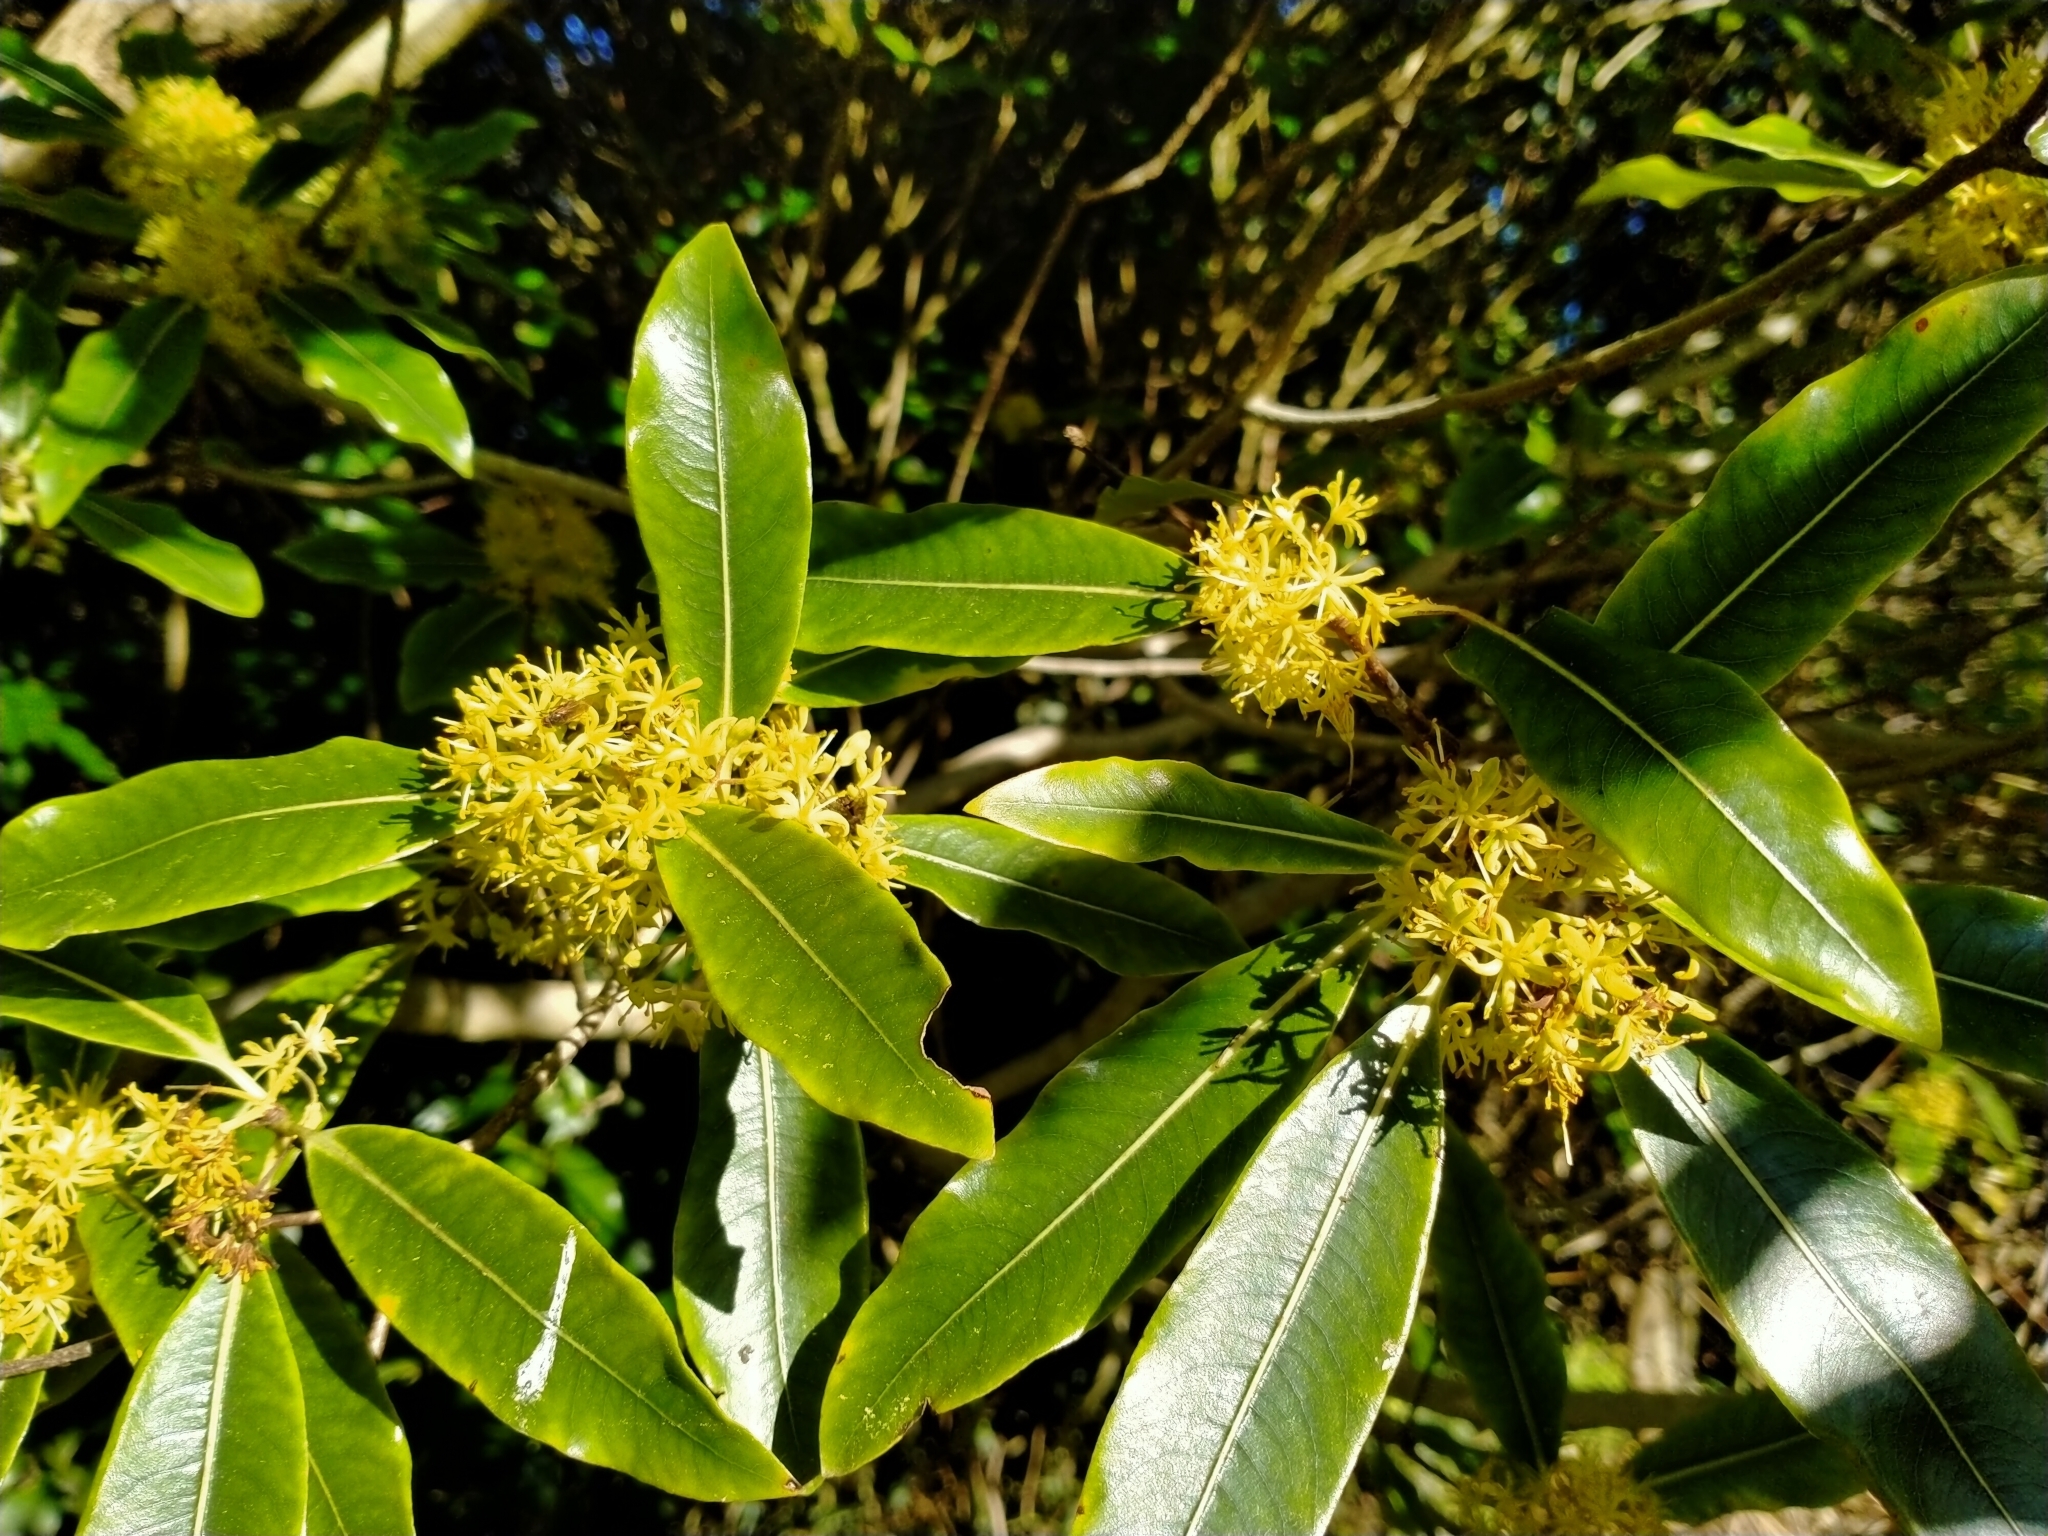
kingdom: Plantae
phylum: Tracheophyta
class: Magnoliopsida
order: Apiales
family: Pittosporaceae
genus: Pittosporum
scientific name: Pittosporum eugenioides
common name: Lemonwood
